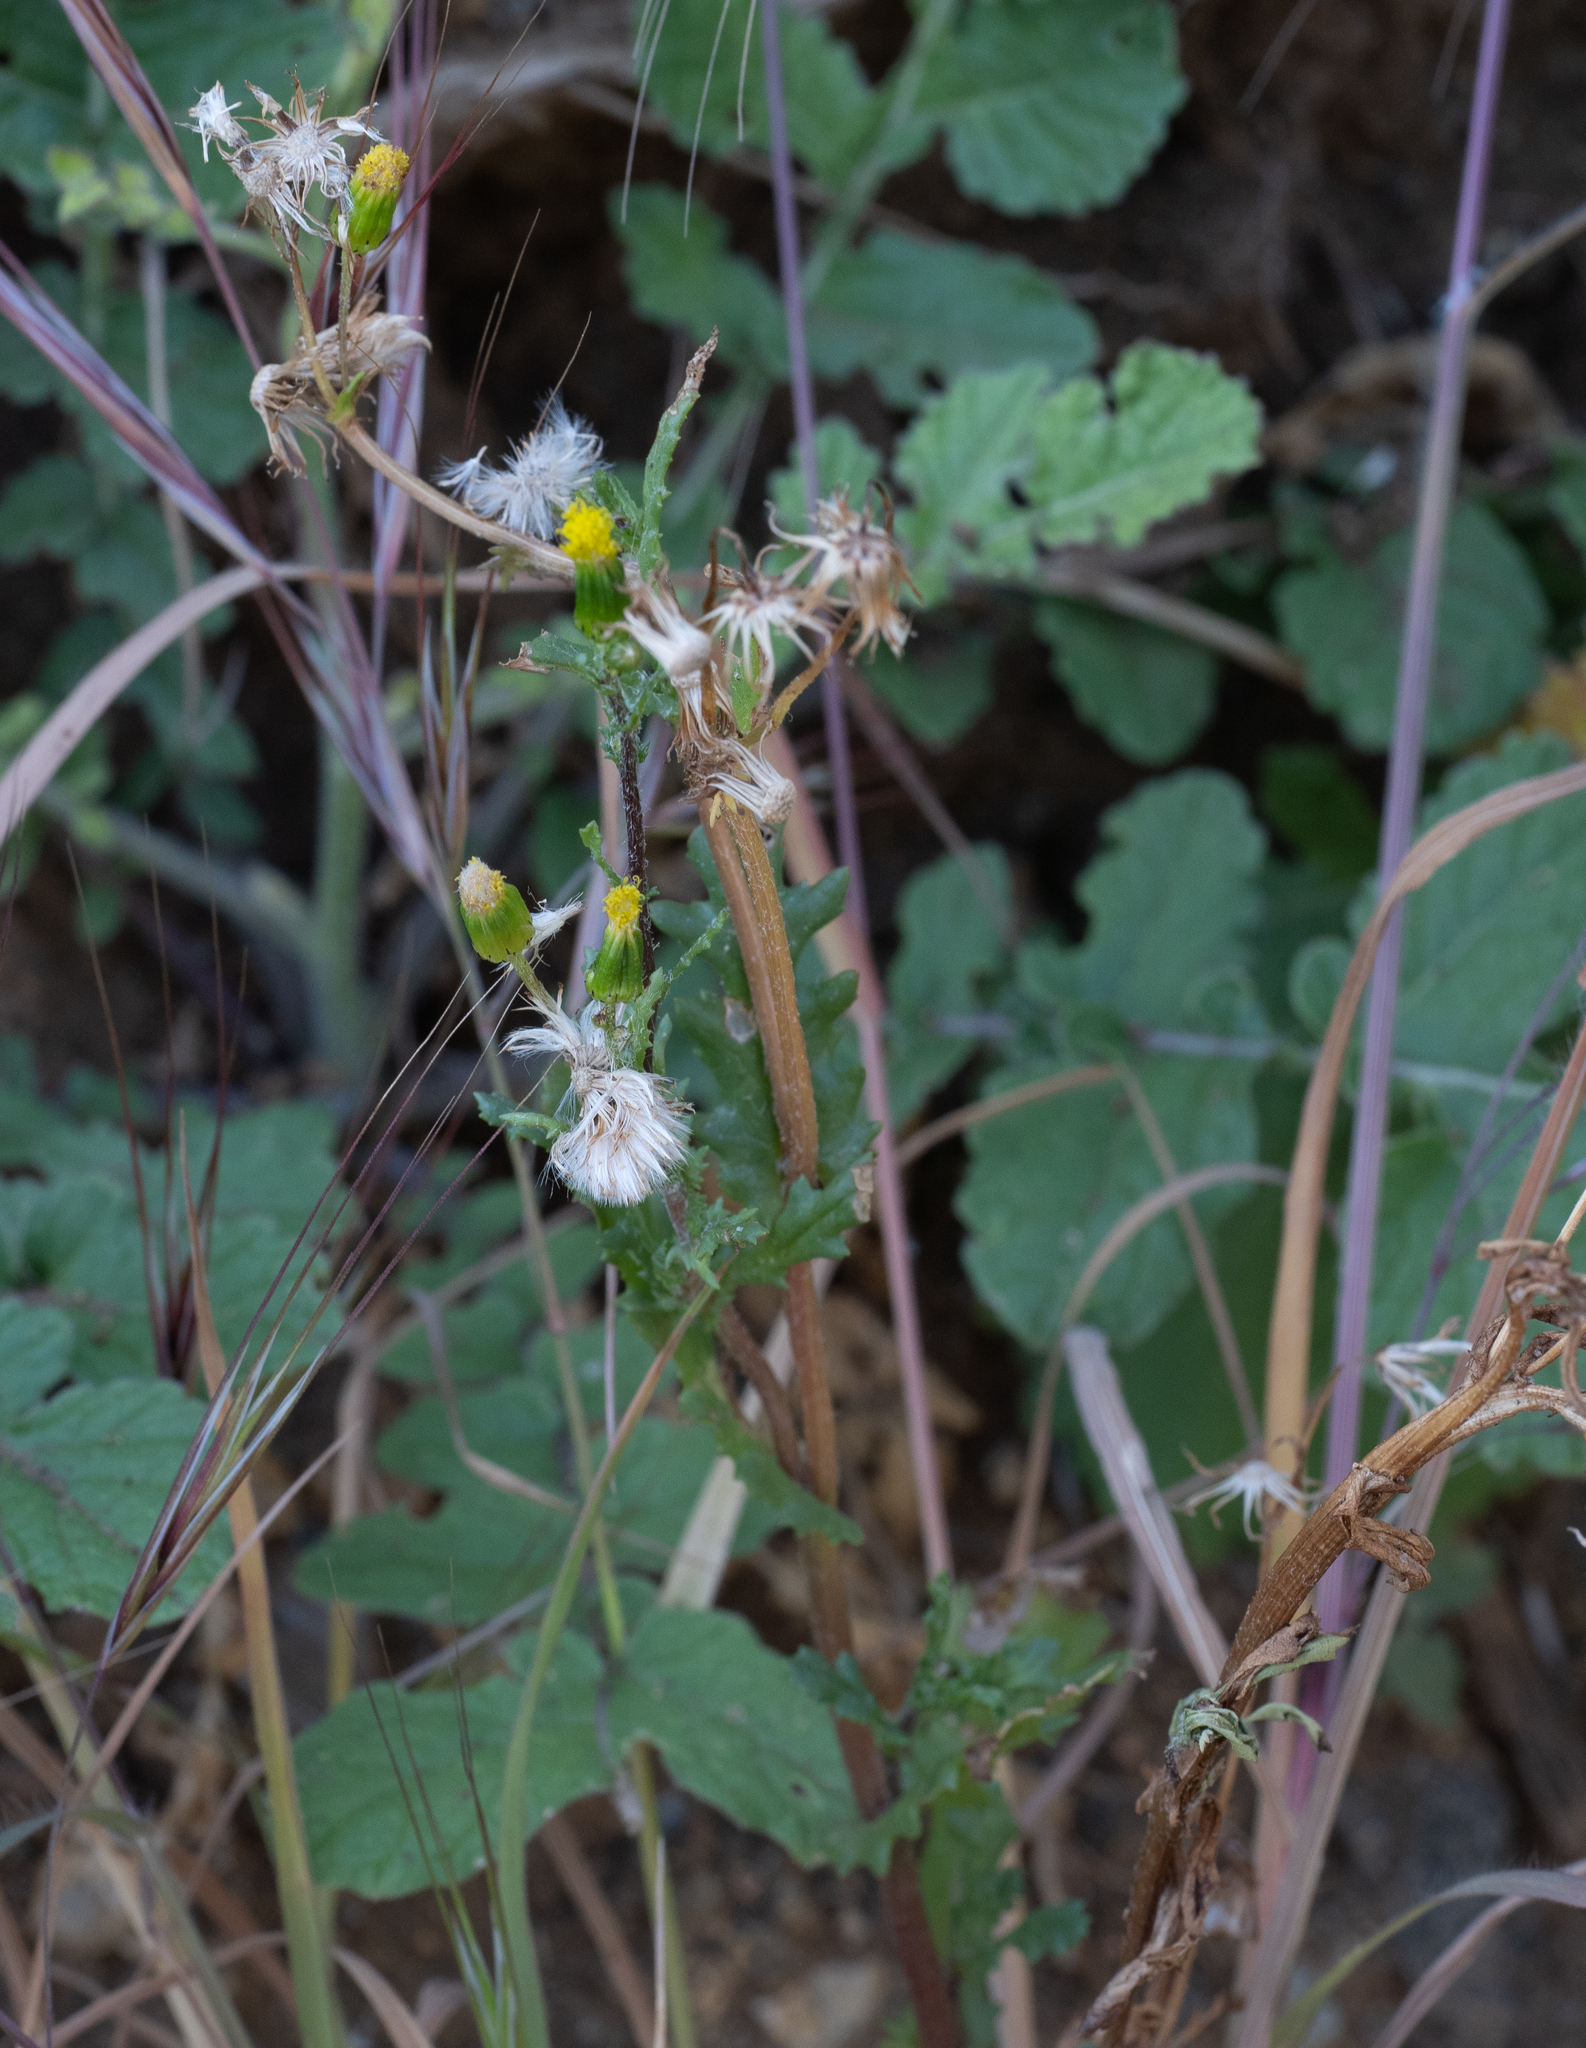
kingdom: Plantae
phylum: Tracheophyta
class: Magnoliopsida
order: Asterales
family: Asteraceae
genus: Senecio
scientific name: Senecio vulgaris
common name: Old-man-in-the-spring
